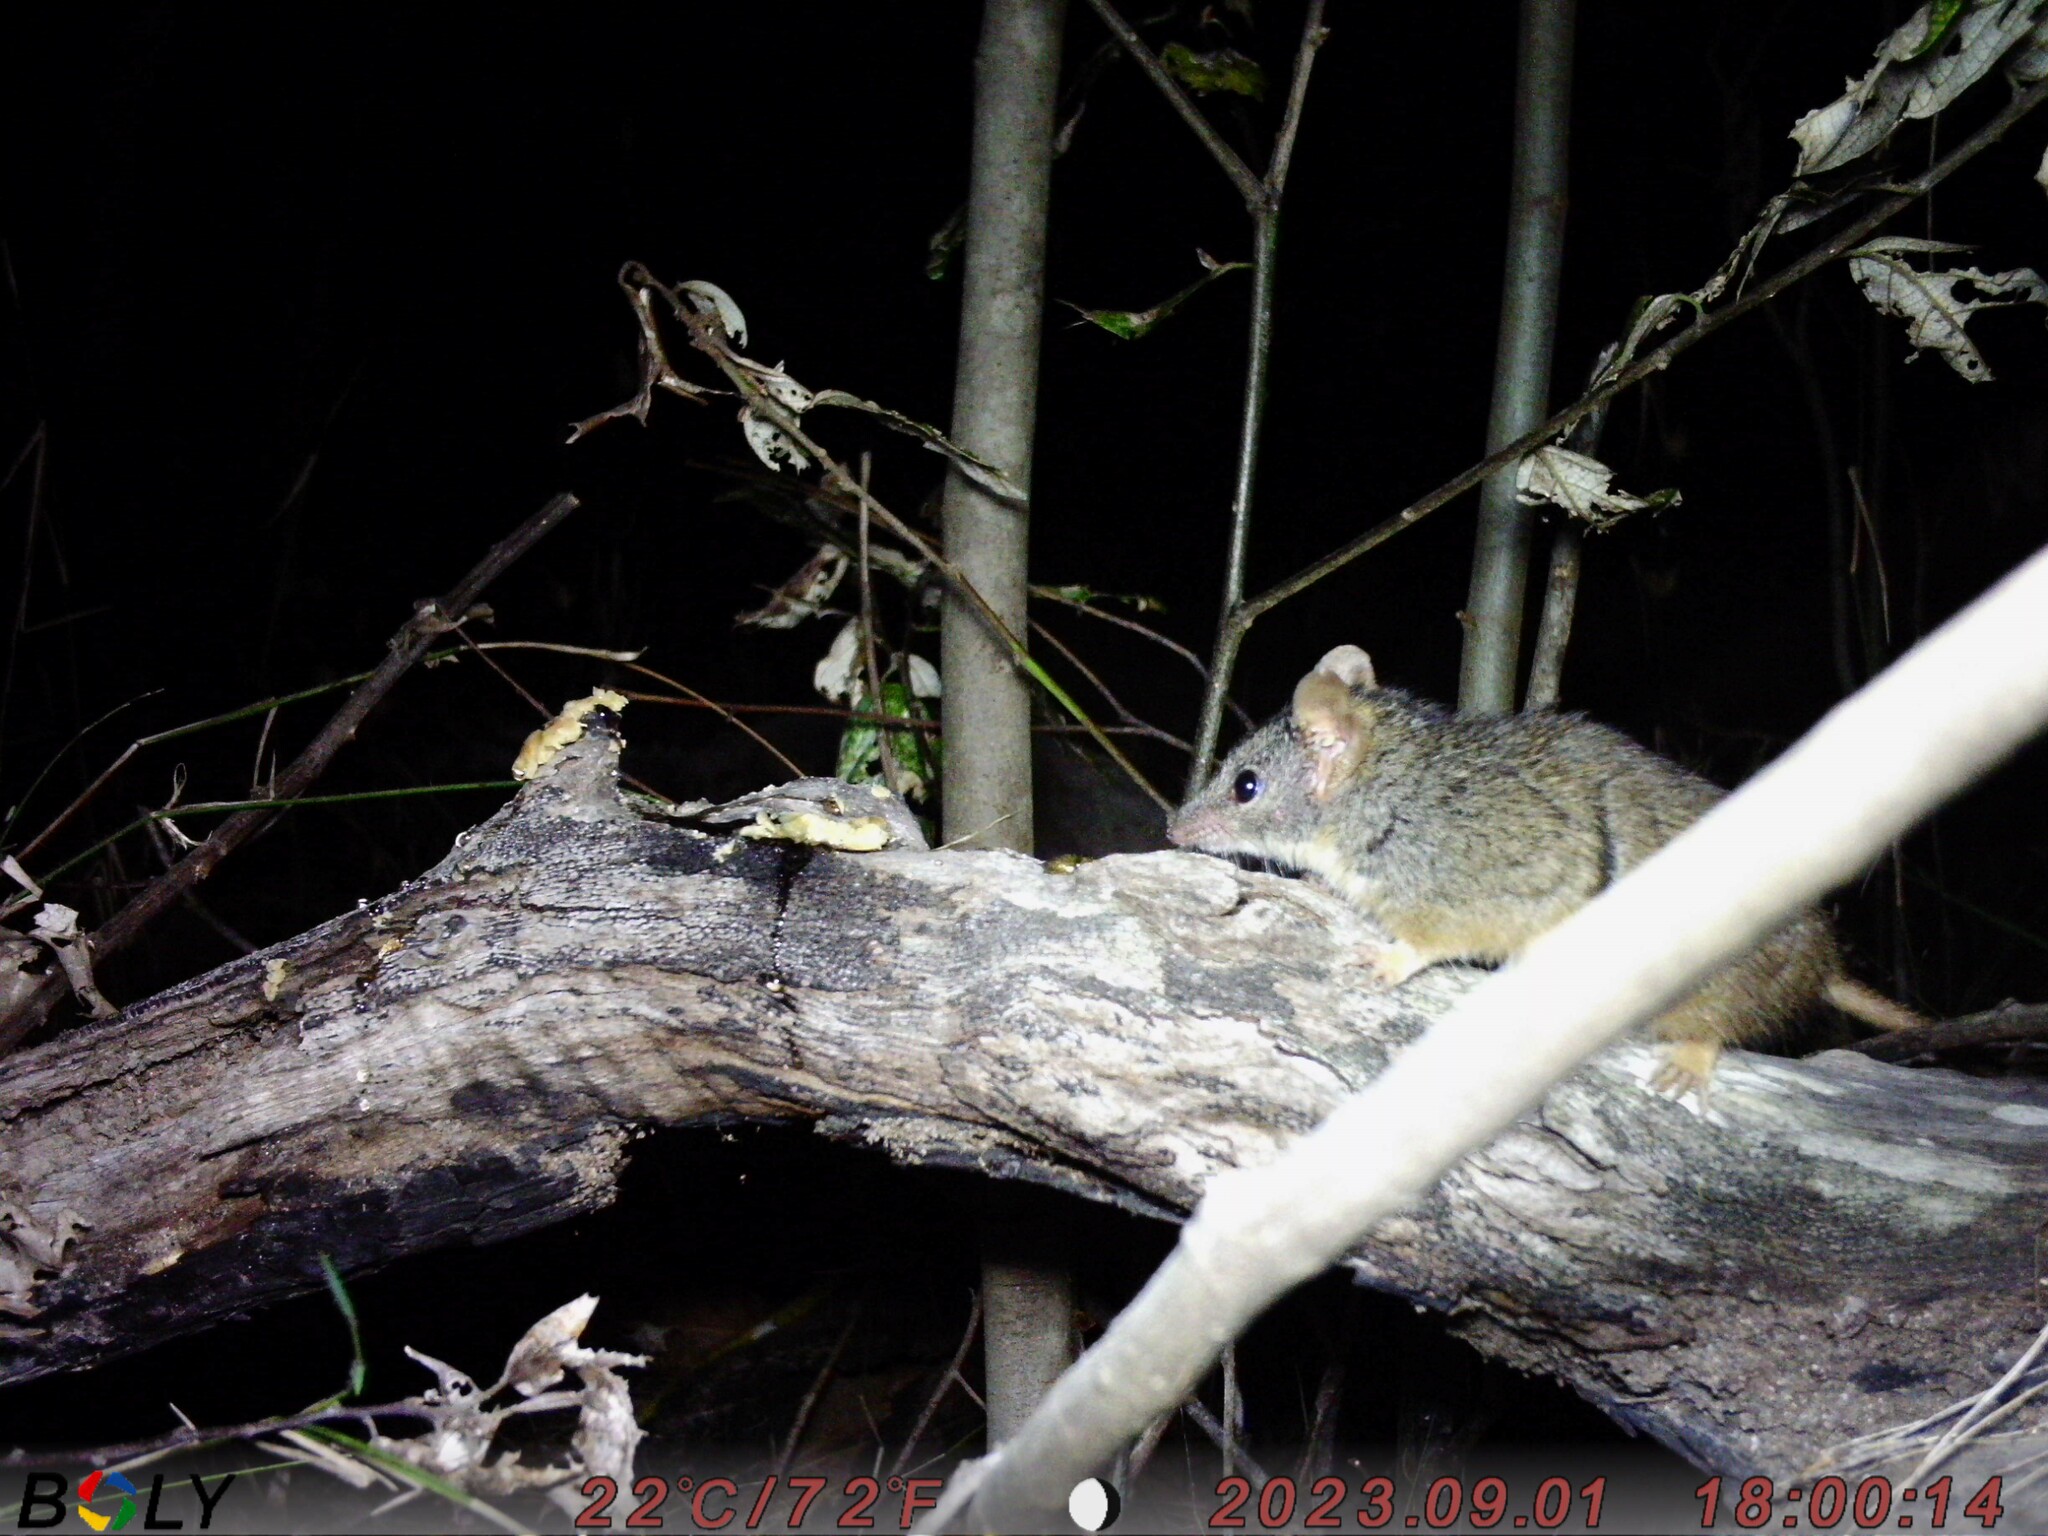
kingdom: Animalia
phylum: Chordata
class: Mammalia
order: Dasyuromorphia
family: Dasyuridae
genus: Antechinus
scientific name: Antechinus flavipes
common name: Yellow-footed antechinus
